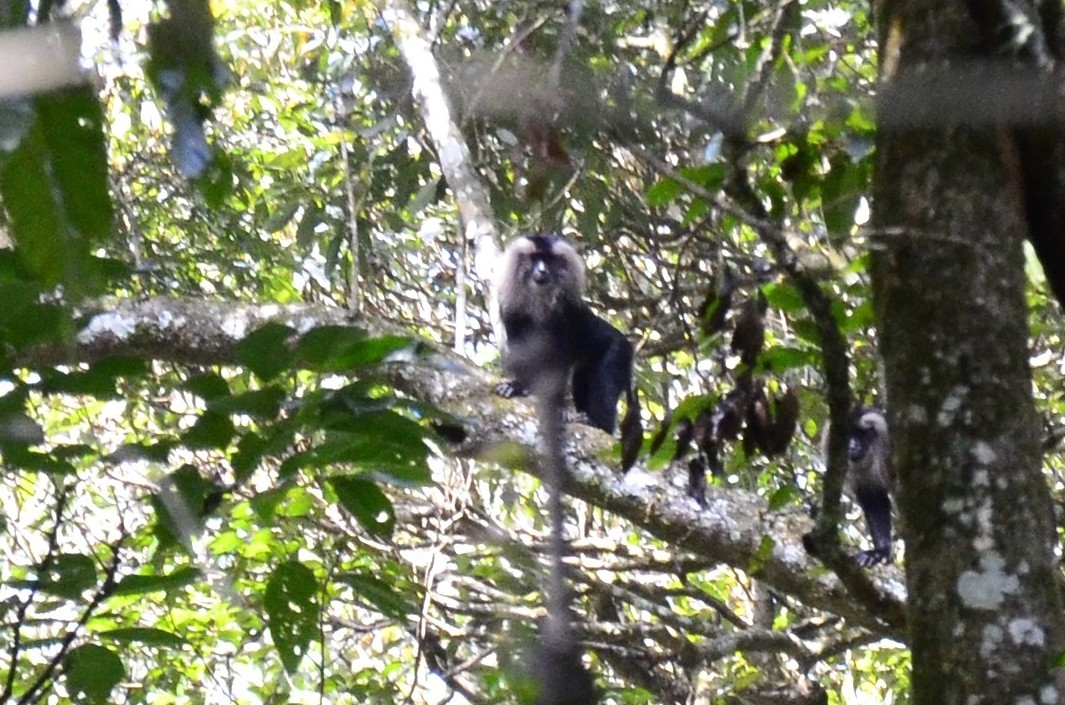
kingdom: Animalia
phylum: Chordata
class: Mammalia
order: Primates
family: Cercopithecidae
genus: Macaca
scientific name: Macaca silenus
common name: Lion-tailed macaque
